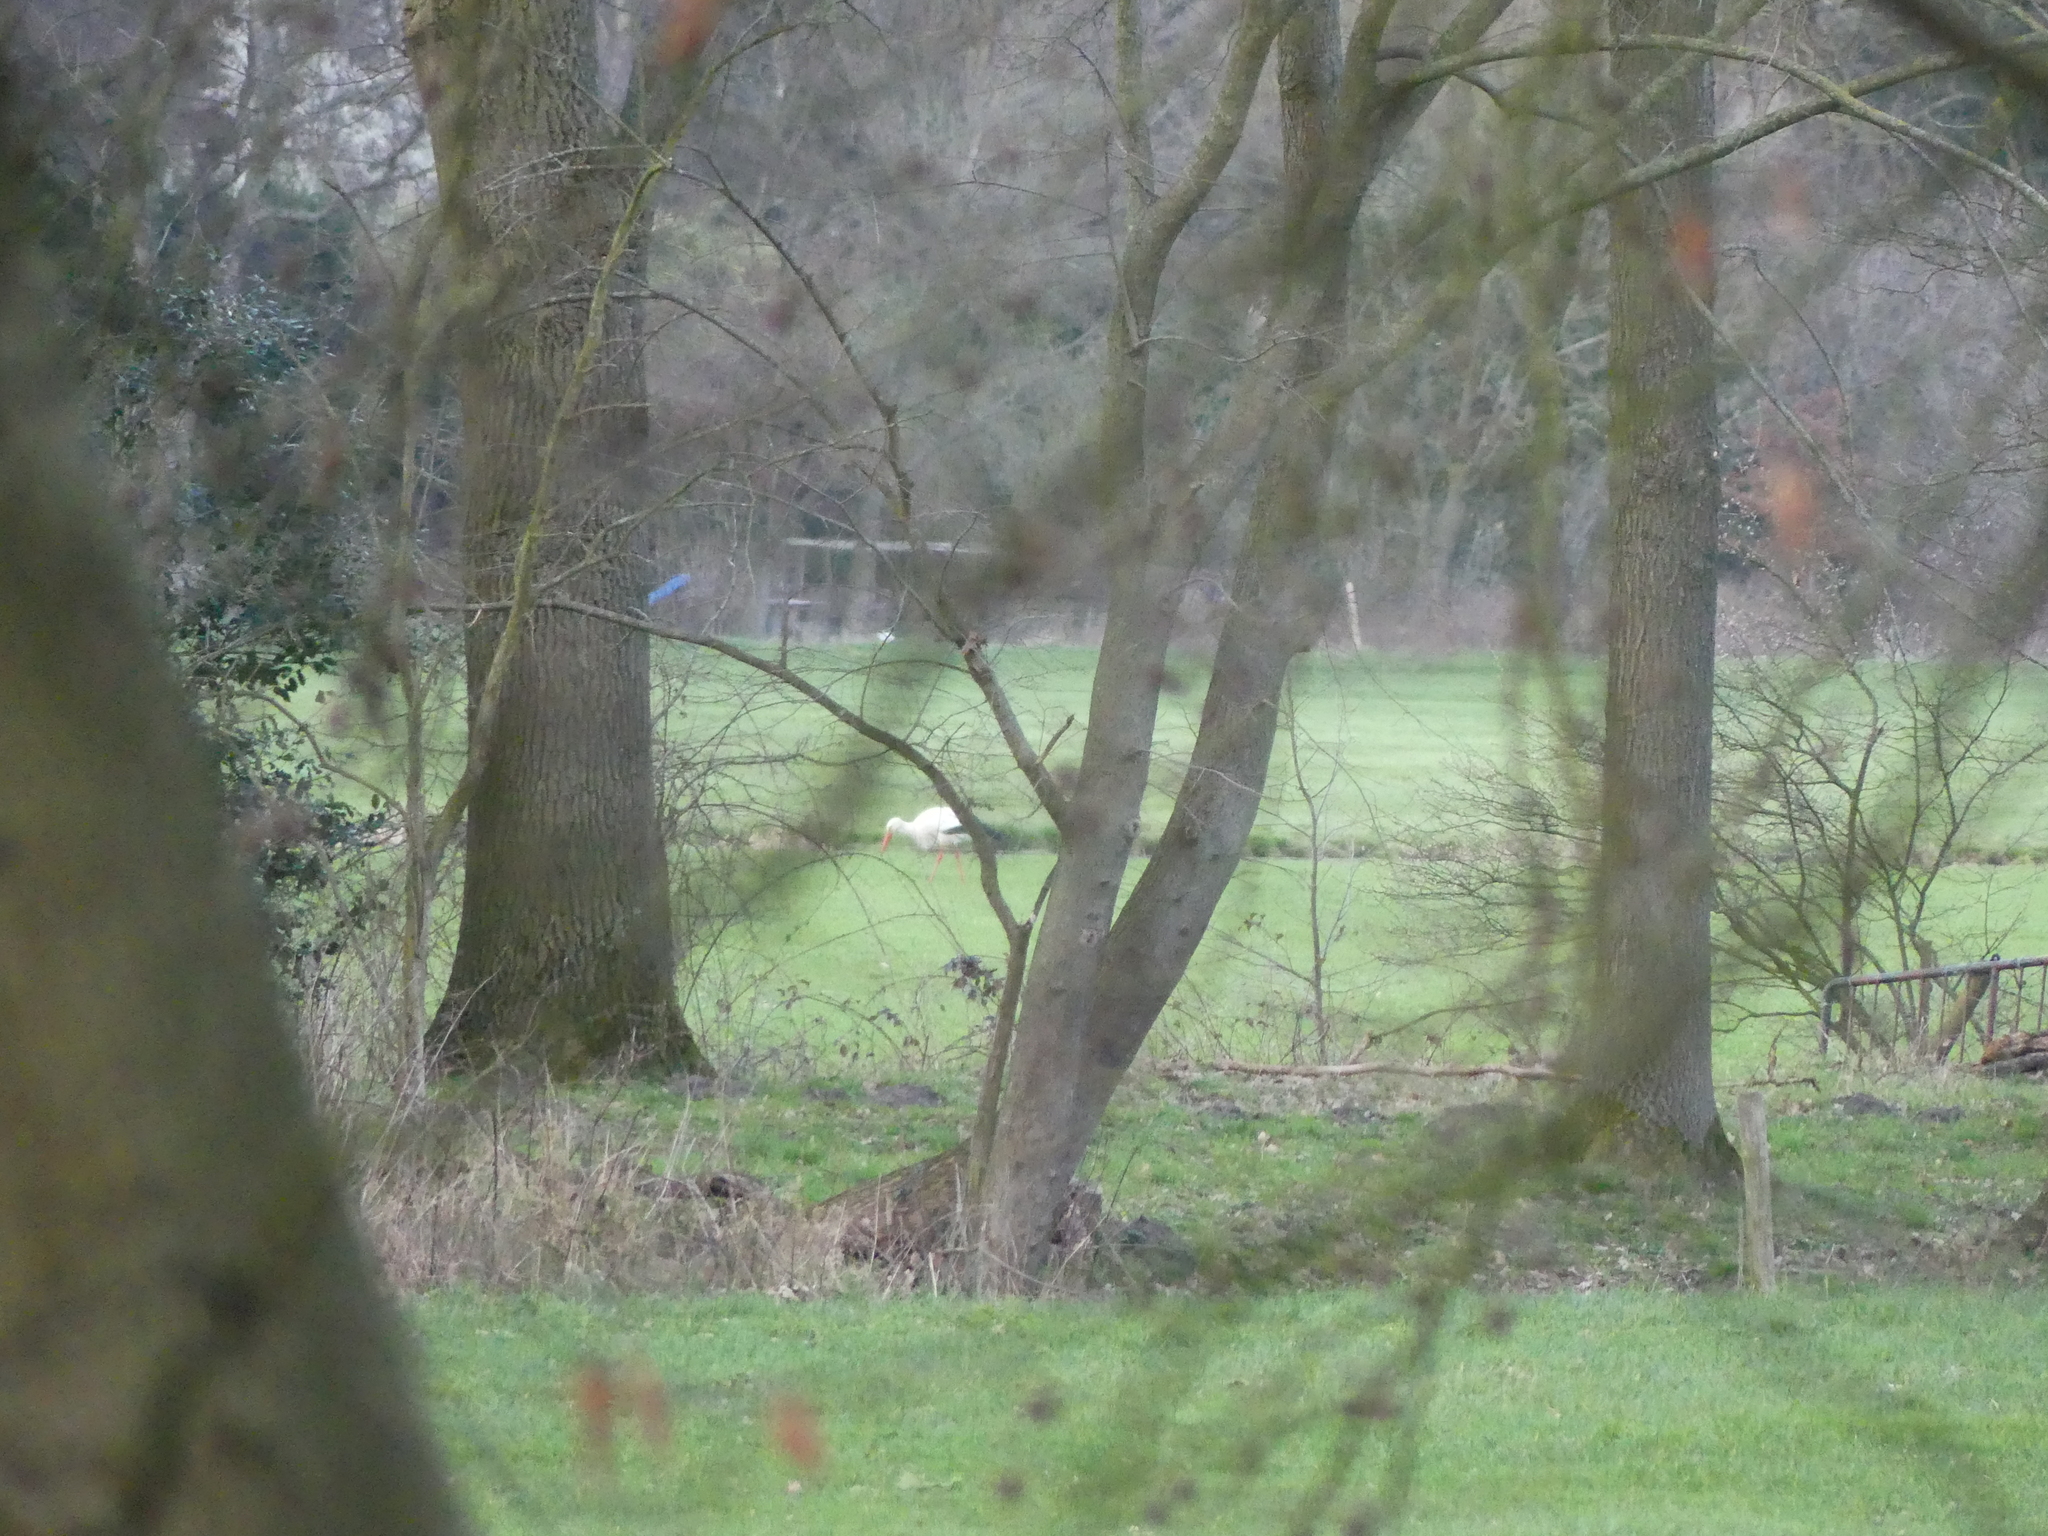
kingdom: Animalia
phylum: Chordata
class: Aves
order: Ciconiiformes
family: Ciconiidae
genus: Ciconia
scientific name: Ciconia ciconia
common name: White stork
